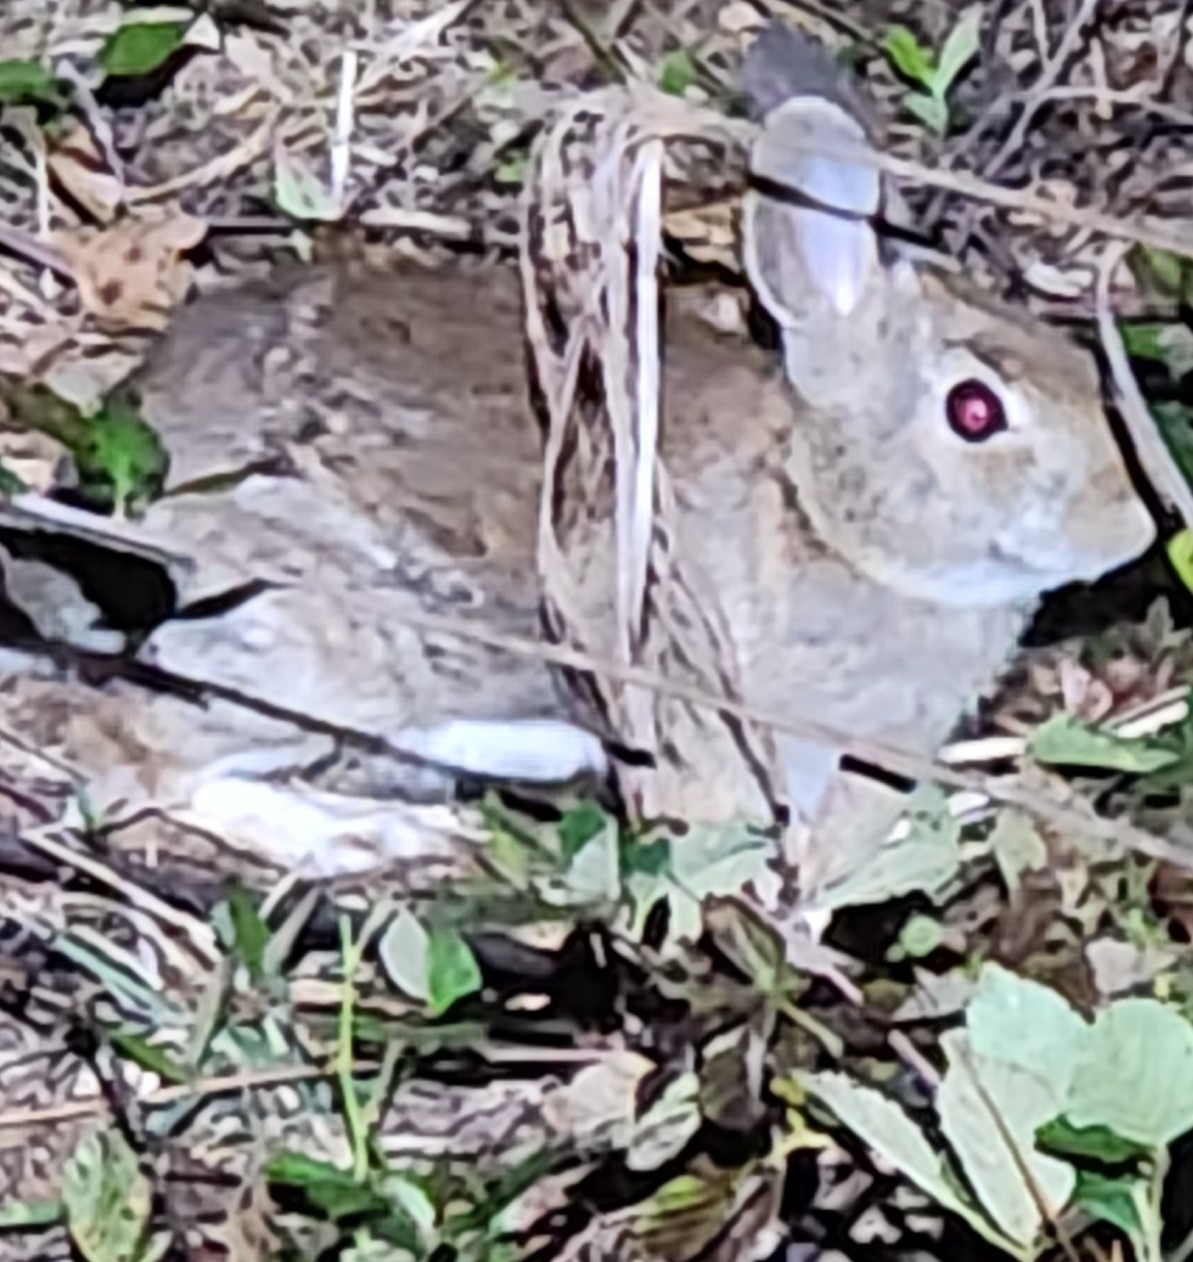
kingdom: Animalia
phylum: Chordata
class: Mammalia
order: Lagomorpha
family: Leporidae
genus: Sylvilagus
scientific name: Sylvilagus floridanus
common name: Eastern cottontail
